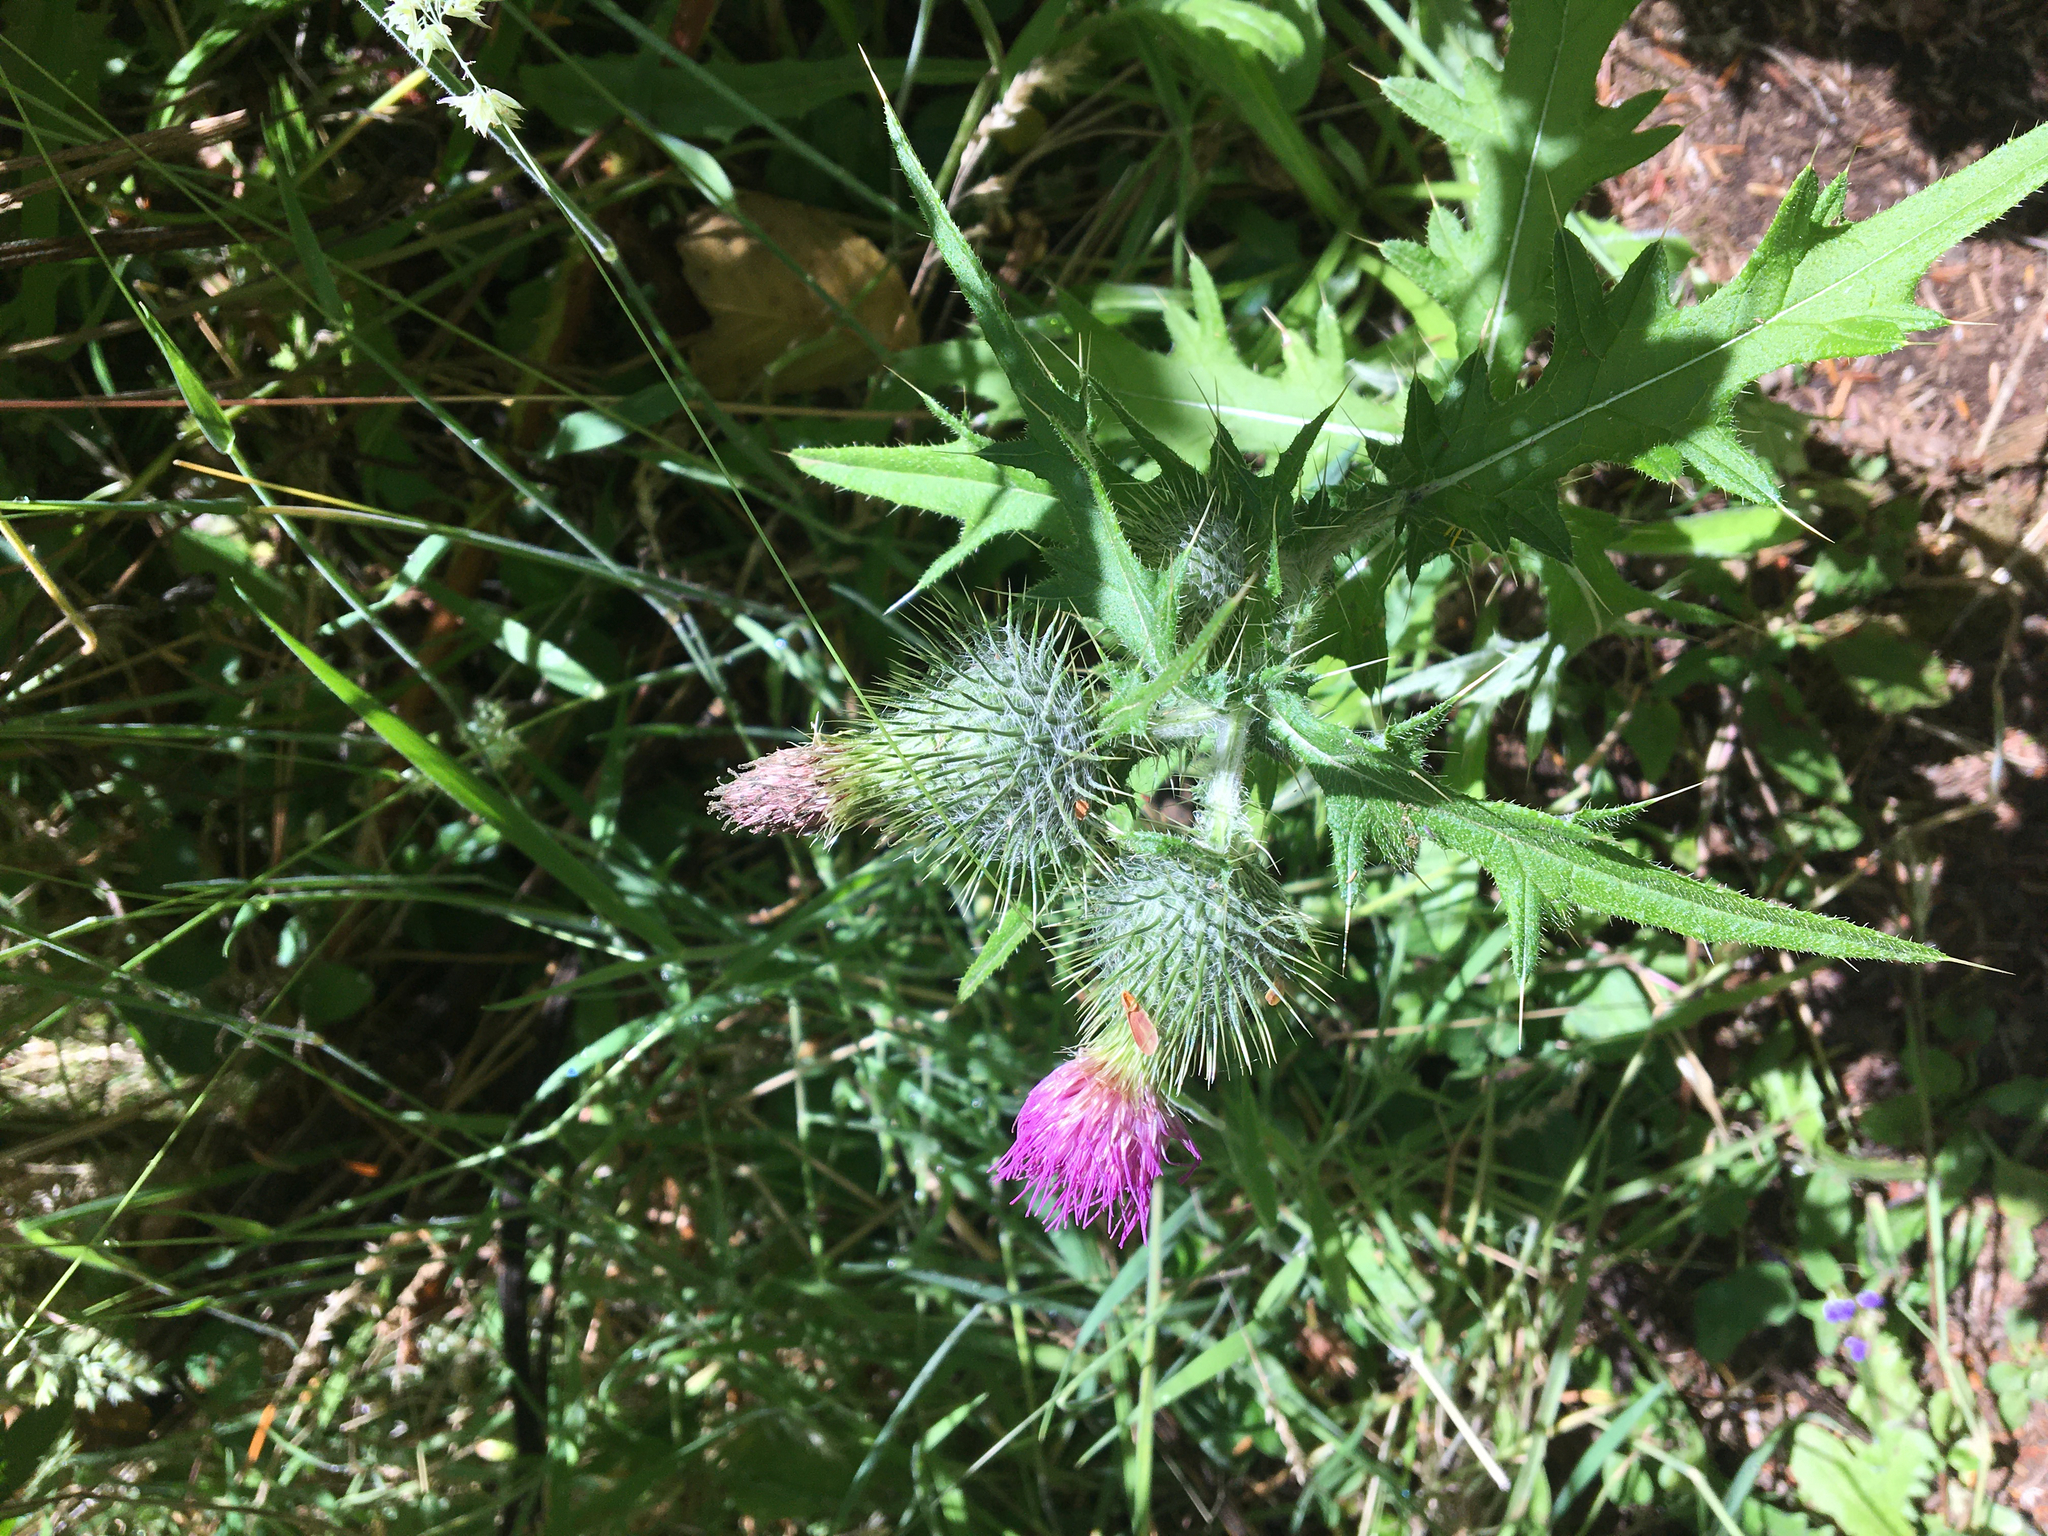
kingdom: Plantae
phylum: Tracheophyta
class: Magnoliopsida
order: Asterales
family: Asteraceae
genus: Cirsium
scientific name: Cirsium vulgare
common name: Bull thistle
